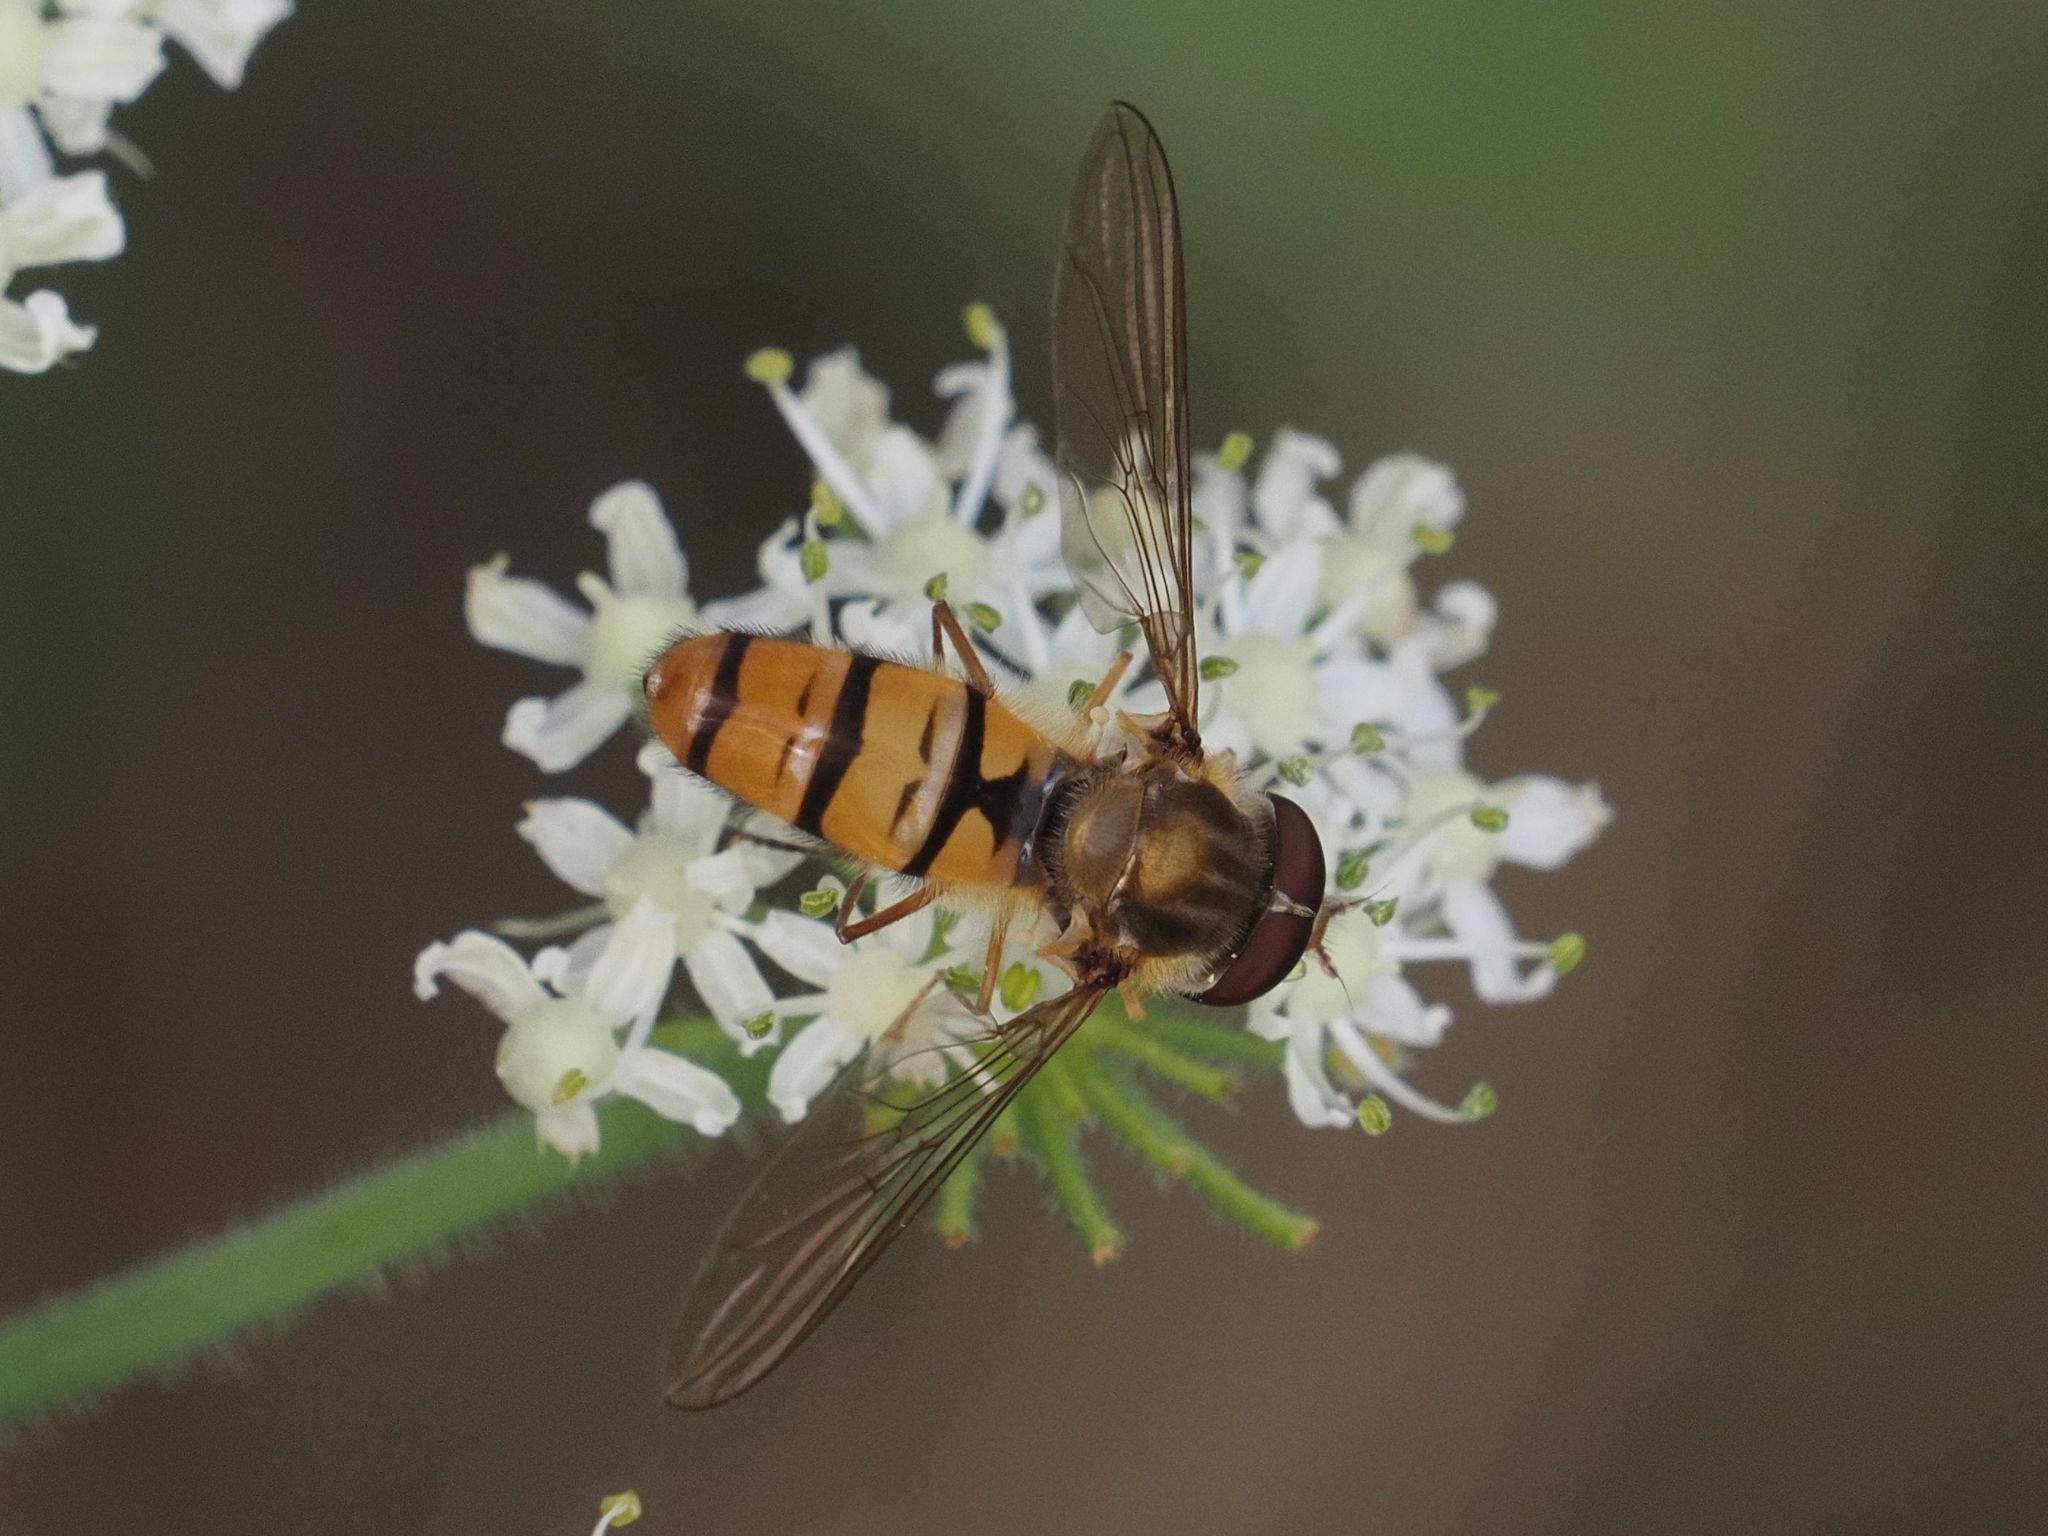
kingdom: Animalia
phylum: Arthropoda
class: Insecta
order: Diptera
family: Syrphidae
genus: Episyrphus
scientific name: Episyrphus balteatus
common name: Marmalade hoverfly
